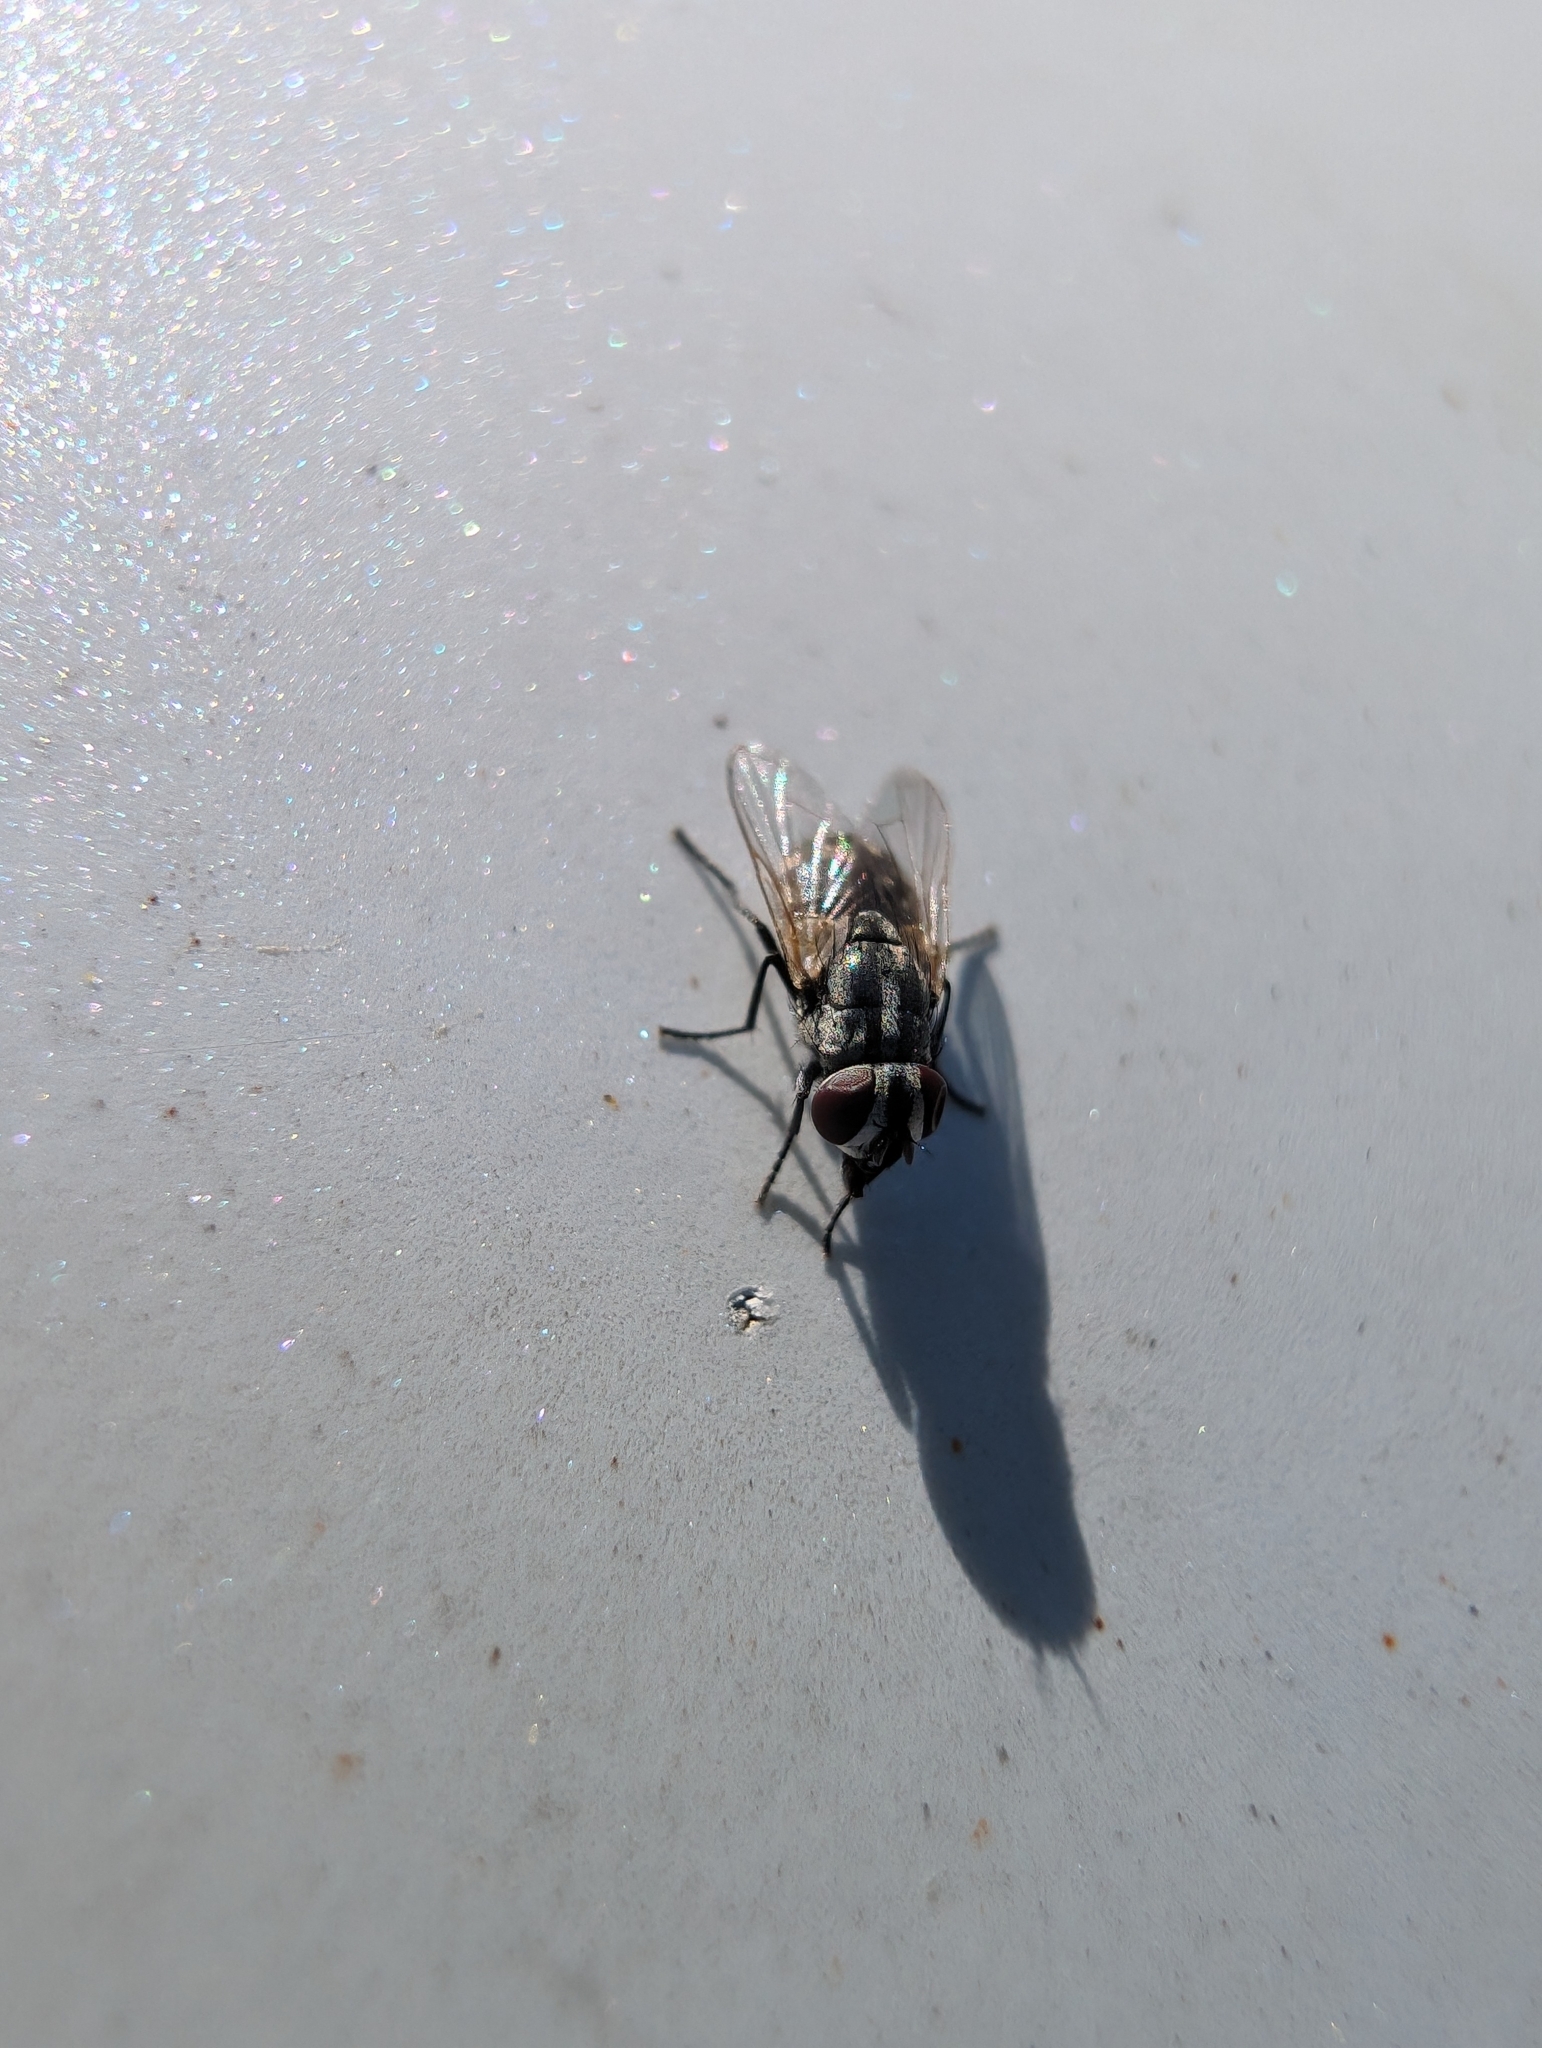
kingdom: Animalia
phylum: Arthropoda
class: Insecta
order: Diptera
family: Muscidae
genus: Musca
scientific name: Musca vetustissima
